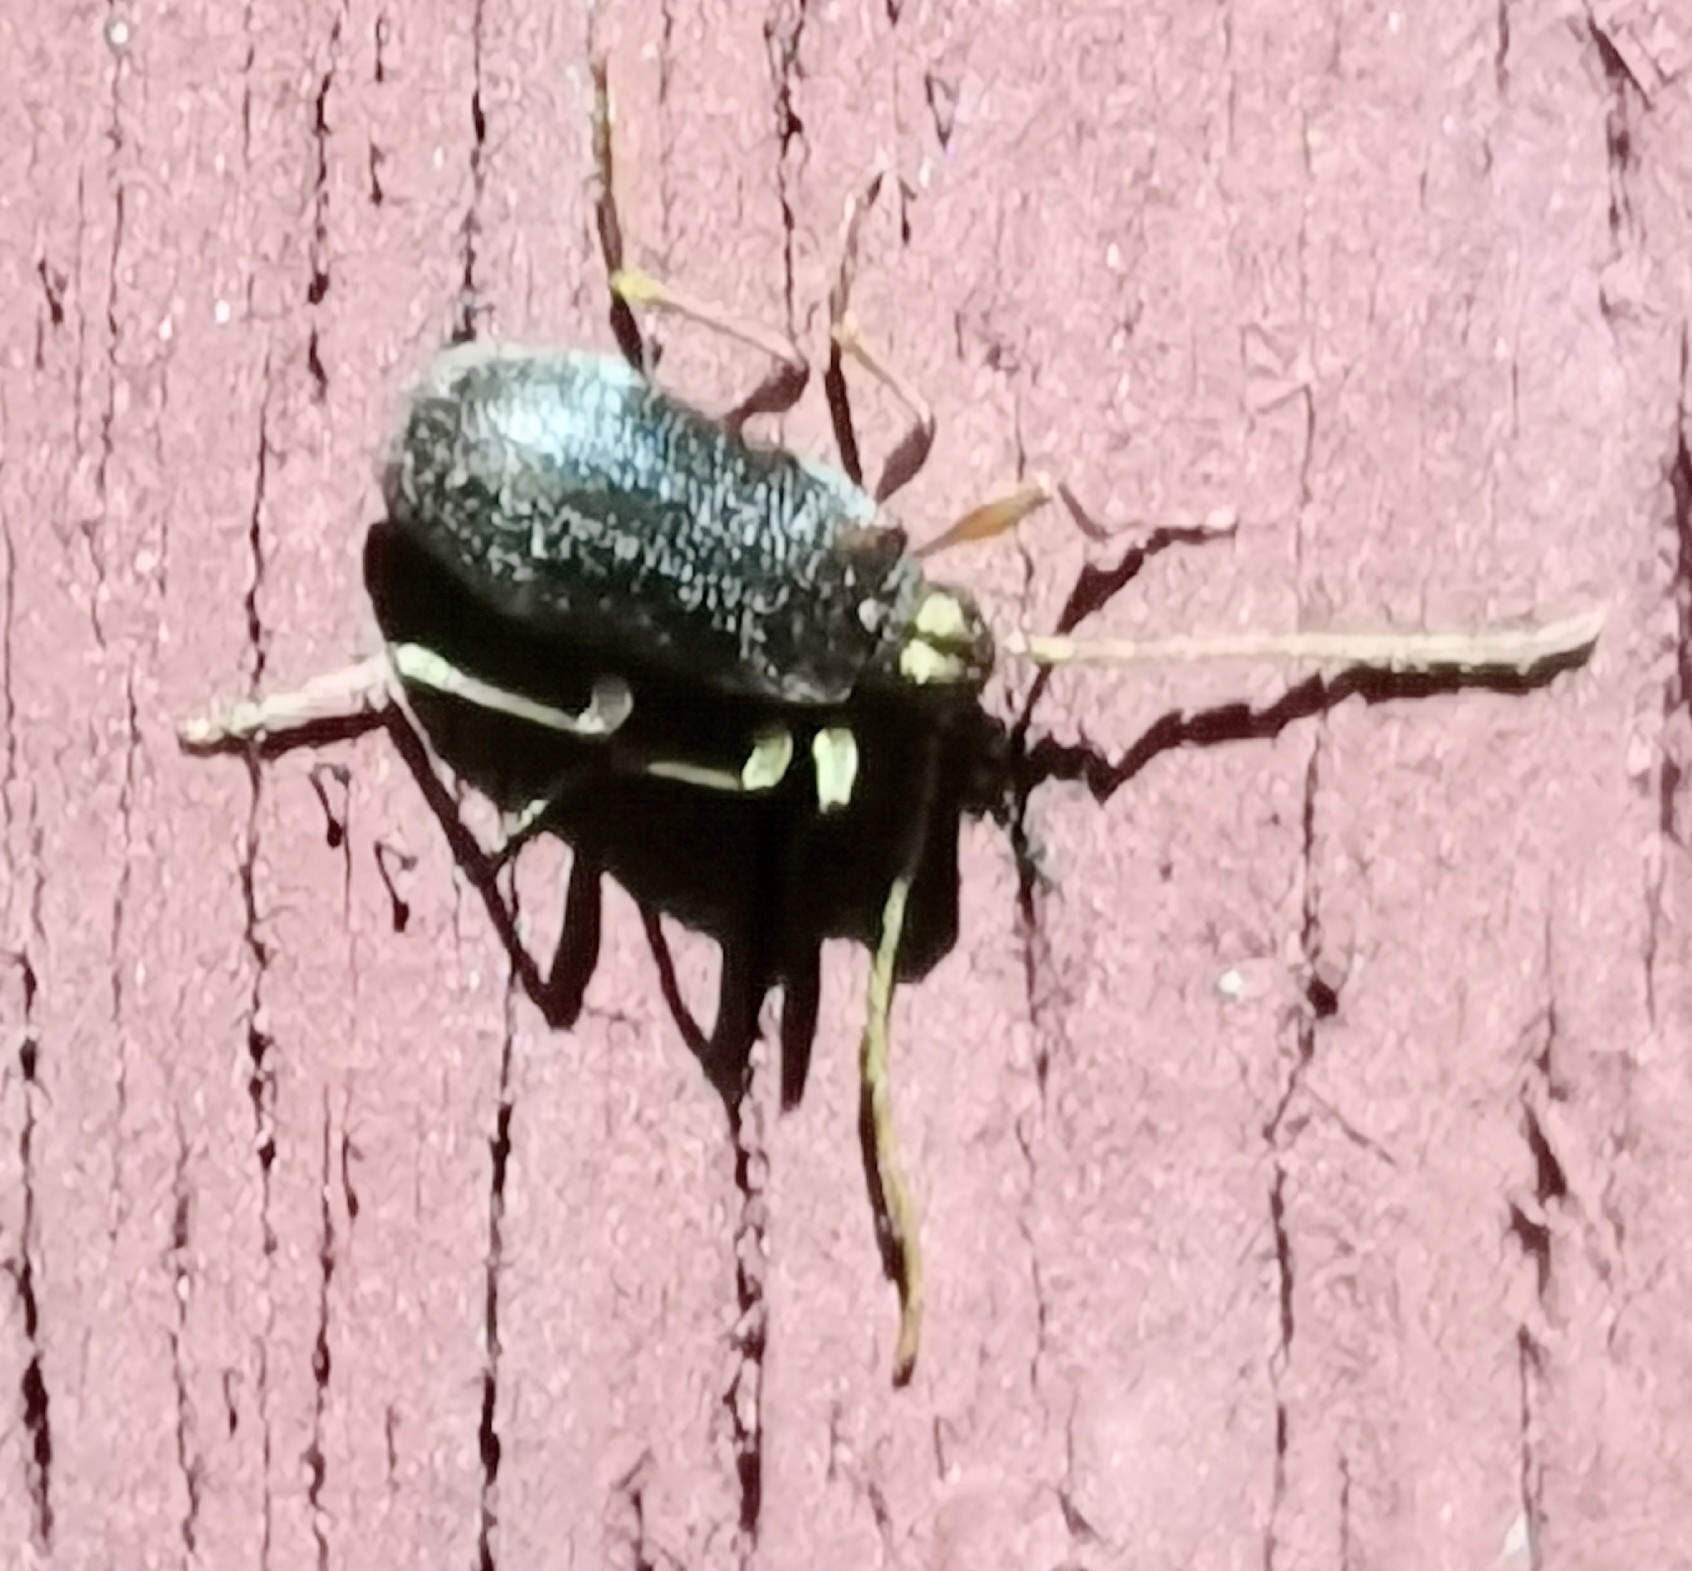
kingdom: Animalia
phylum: Arthropoda
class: Insecta
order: Coleoptera
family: Ptinidae
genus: Ptinus
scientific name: Ptinus raptor
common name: Eastern spider beetle
